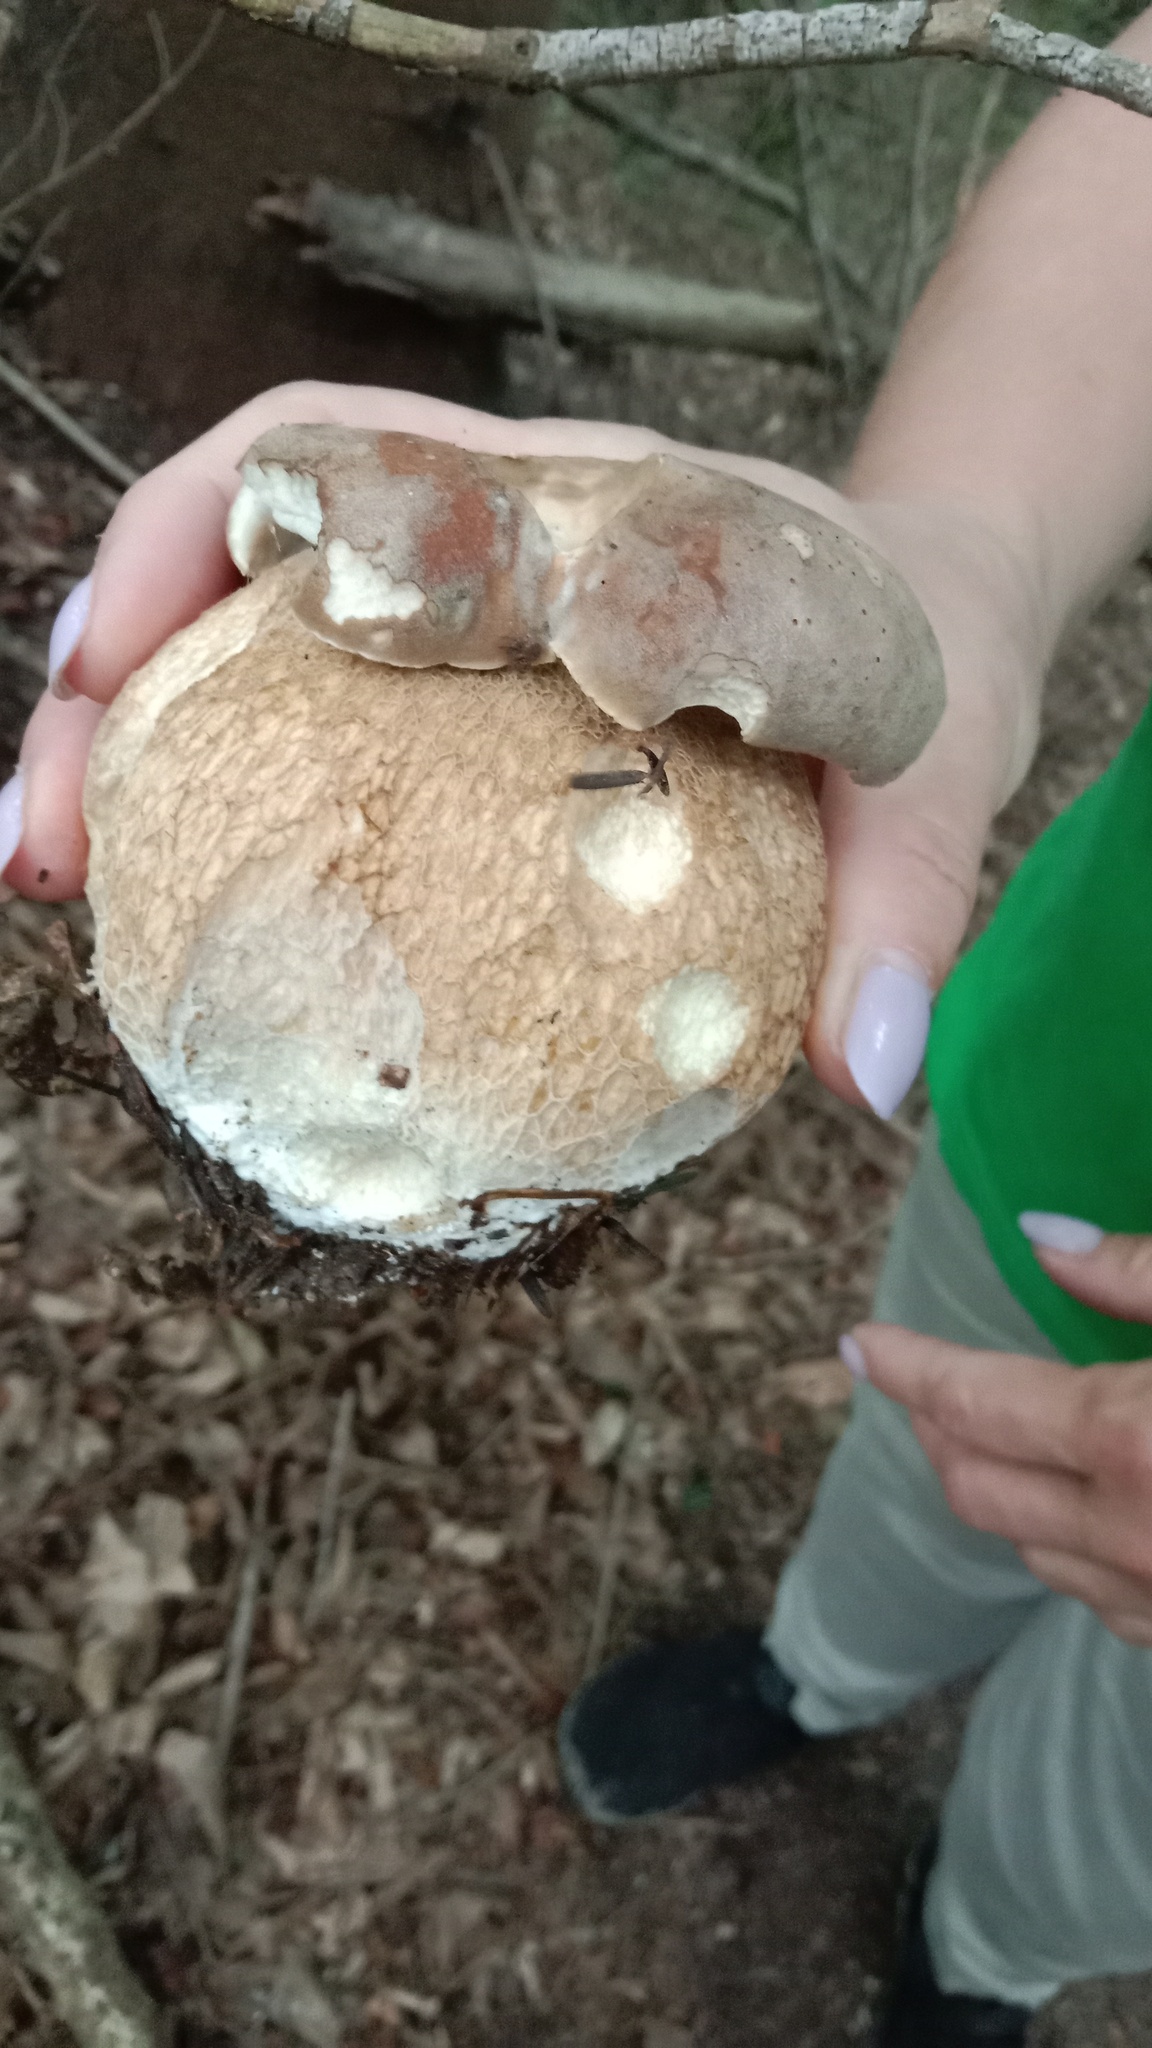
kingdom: Fungi
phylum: Basidiomycota
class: Agaricomycetes
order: Boletales
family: Boletaceae
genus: Boletus
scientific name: Boletus reticulatus
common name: Summer bolete
